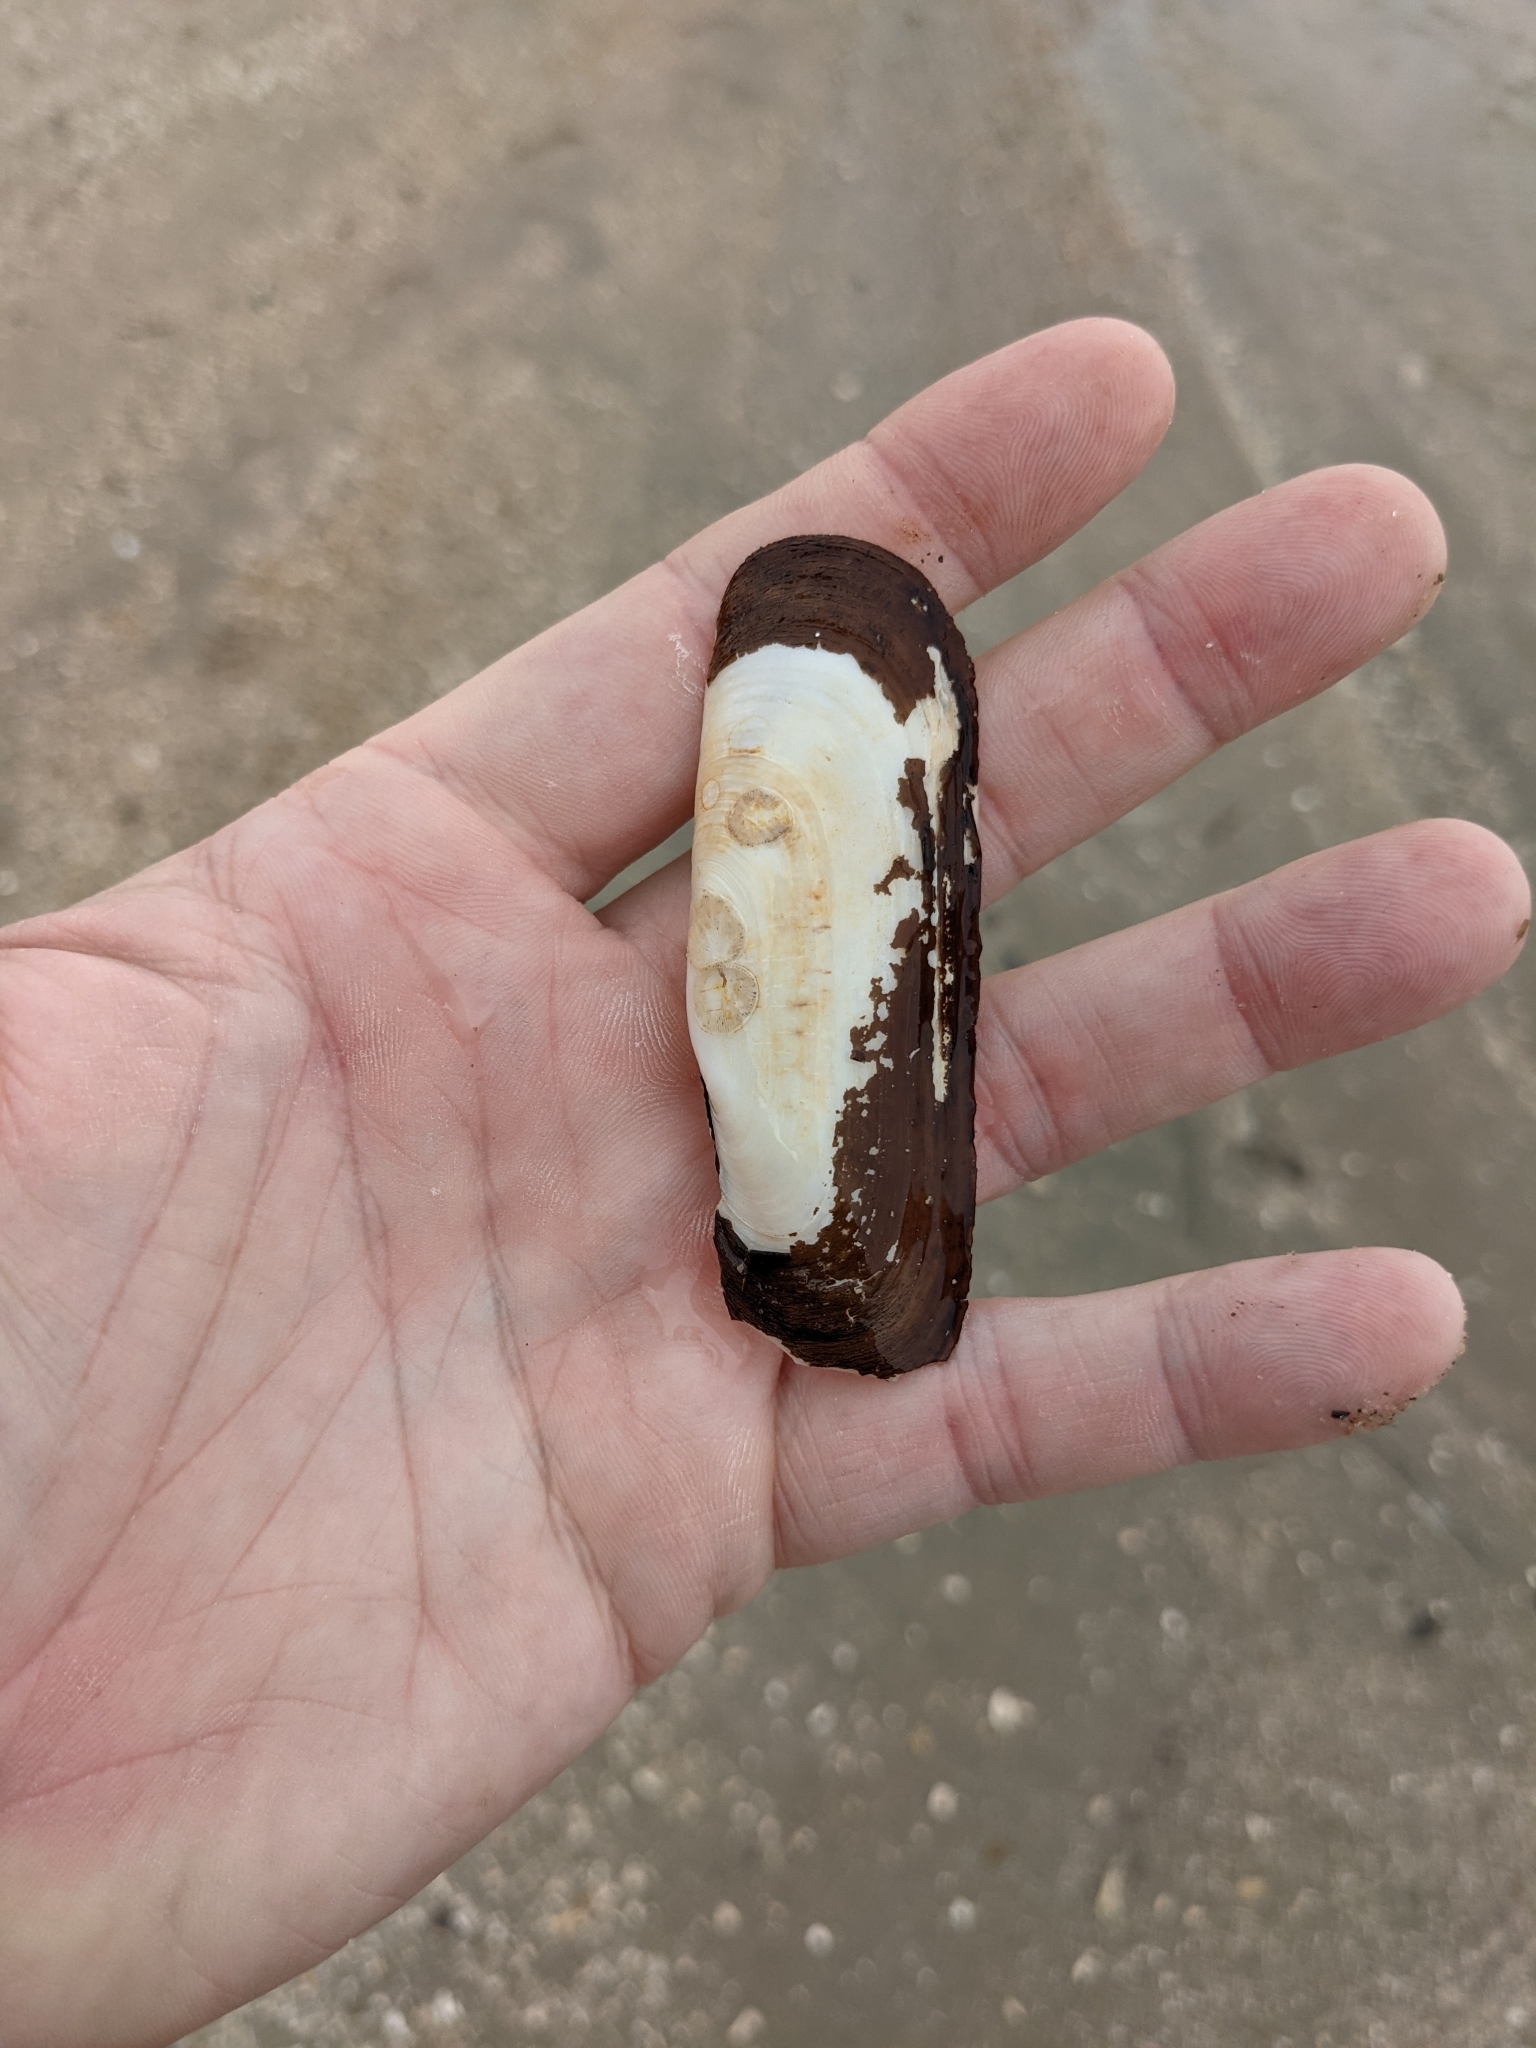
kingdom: Animalia
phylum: Mollusca
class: Bivalvia
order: Cardiida
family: Solecurtidae
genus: Tagelus
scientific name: Tagelus plebeius
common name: Stout tagelus
